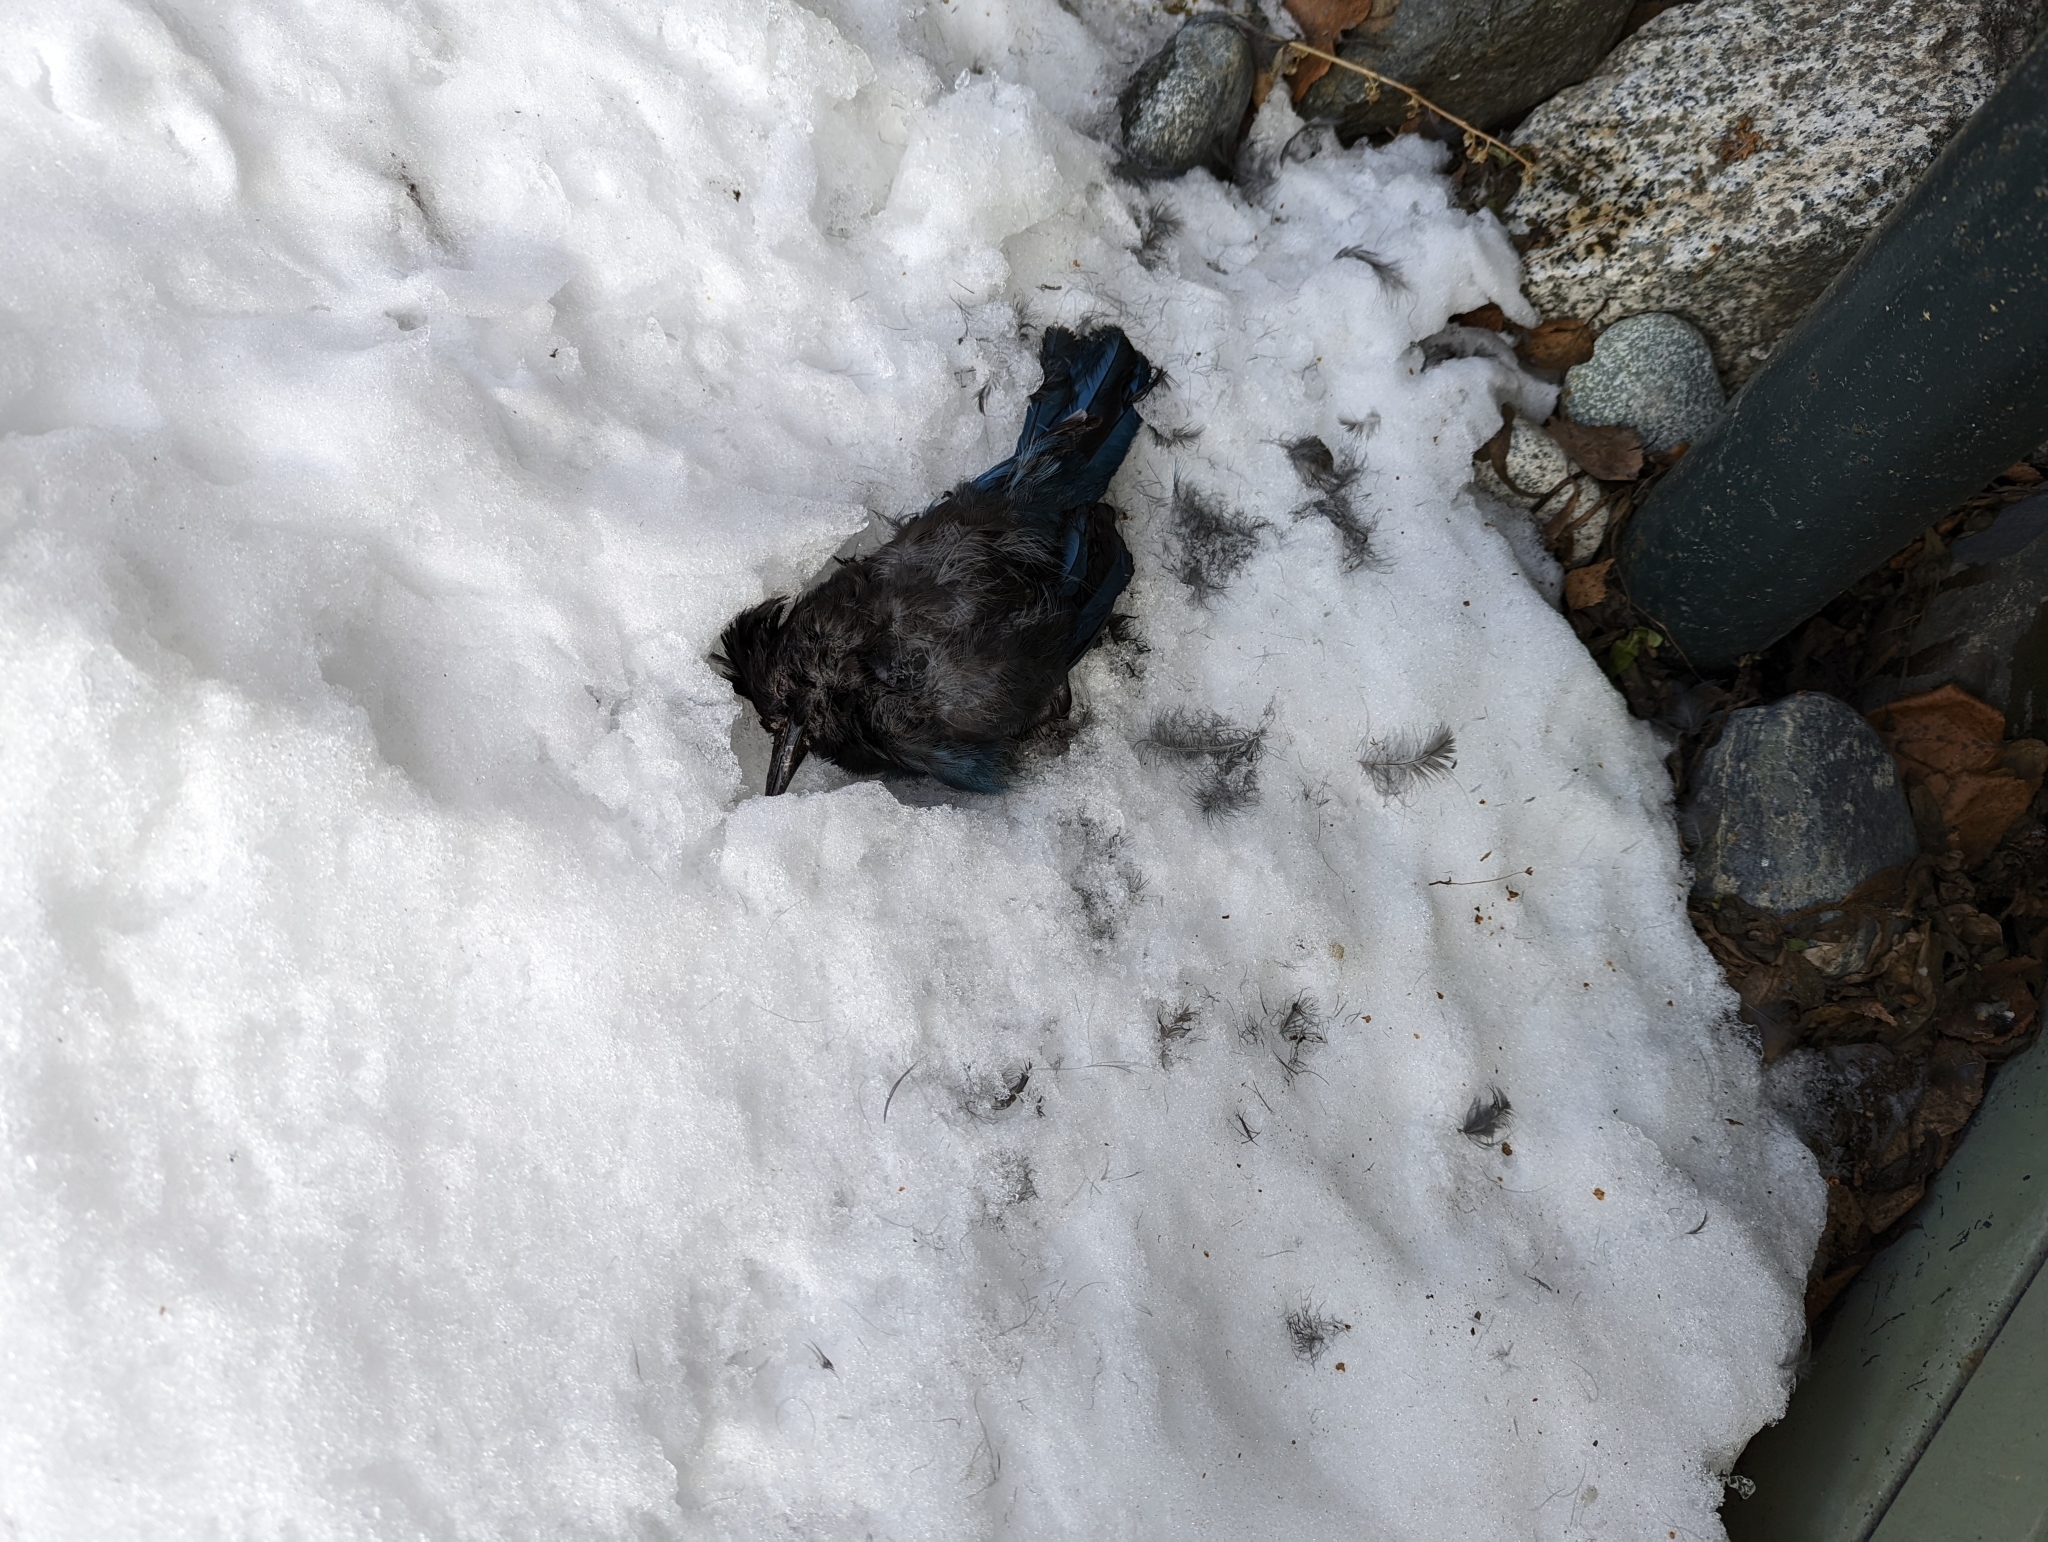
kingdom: Animalia
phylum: Chordata
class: Aves
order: Passeriformes
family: Corvidae
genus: Cyanocitta
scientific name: Cyanocitta stelleri
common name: Steller's jay
